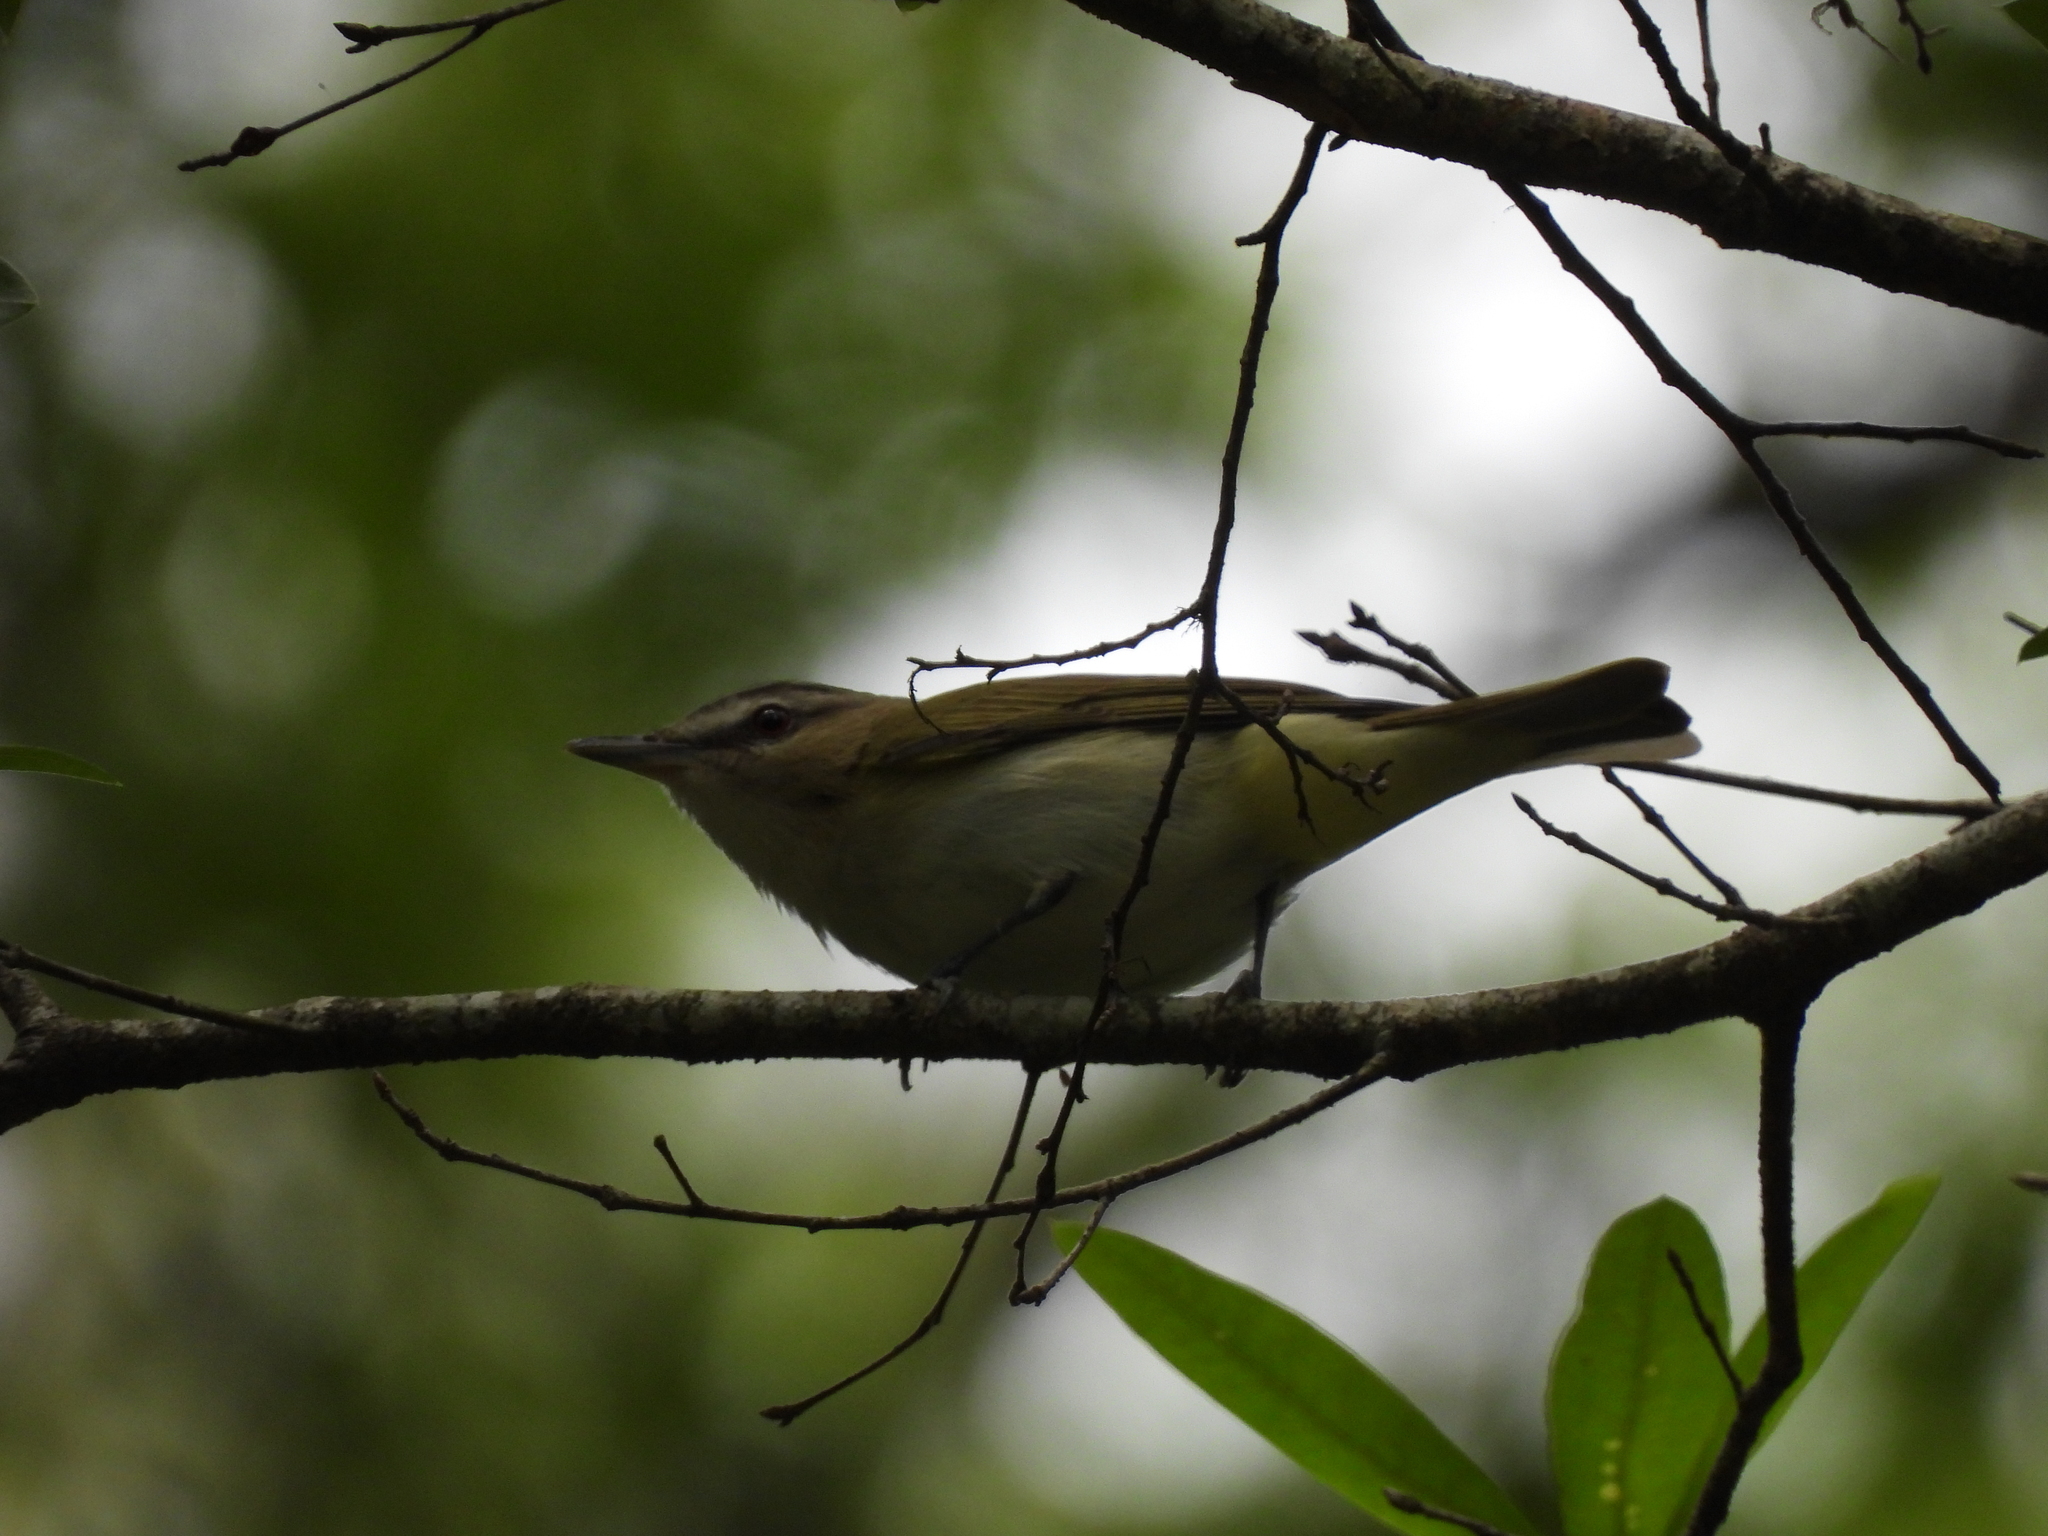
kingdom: Animalia
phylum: Chordata
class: Aves
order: Passeriformes
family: Vireonidae
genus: Vireo
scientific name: Vireo olivaceus
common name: Red-eyed vireo
